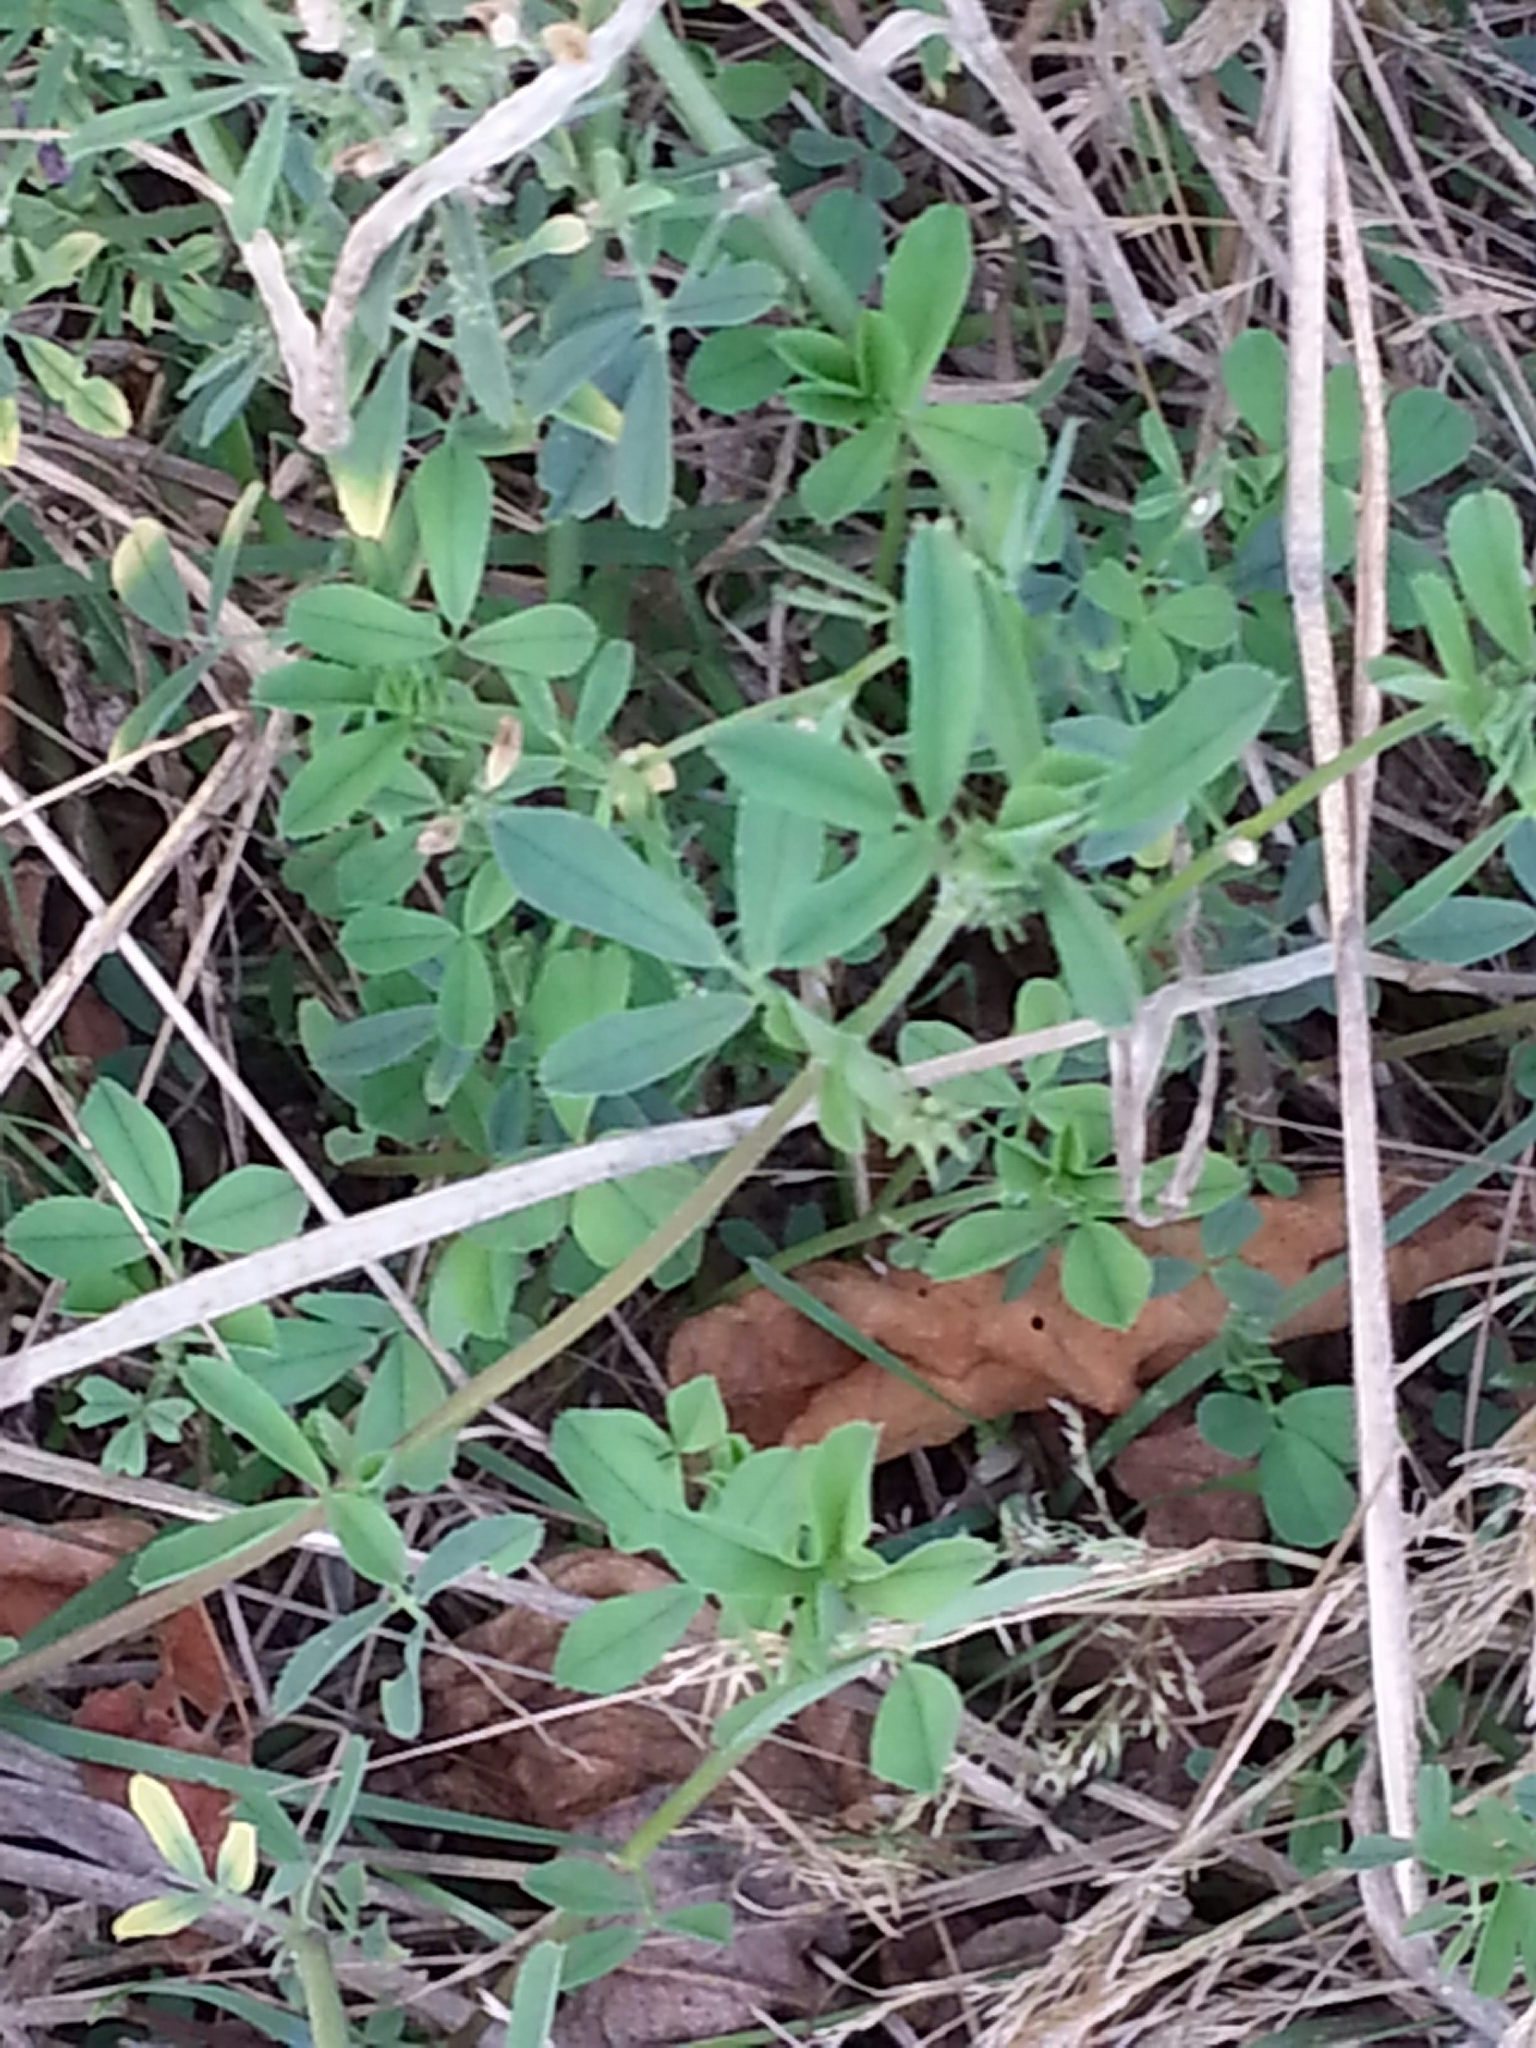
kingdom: Plantae
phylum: Tracheophyta
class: Magnoliopsida
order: Fabales
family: Fabaceae
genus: Medicago
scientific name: Medicago sativa
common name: Alfalfa
